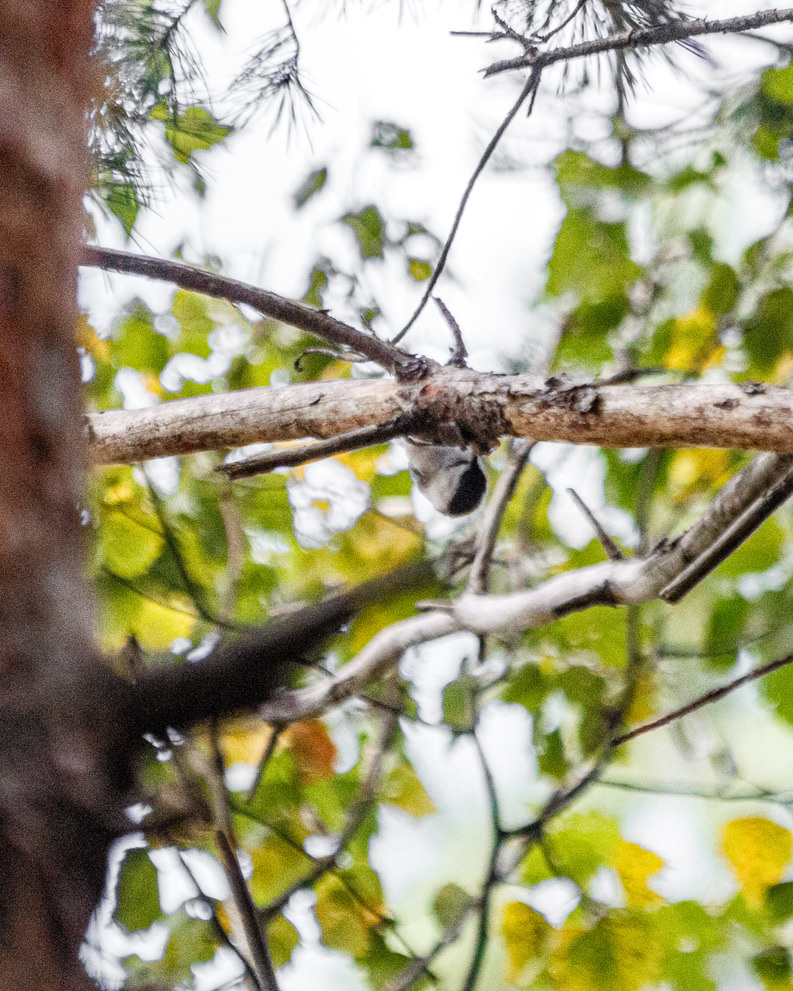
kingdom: Animalia
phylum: Chordata
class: Aves
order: Passeriformes
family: Paridae
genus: Poecile
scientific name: Poecile montanus
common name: Willow tit
